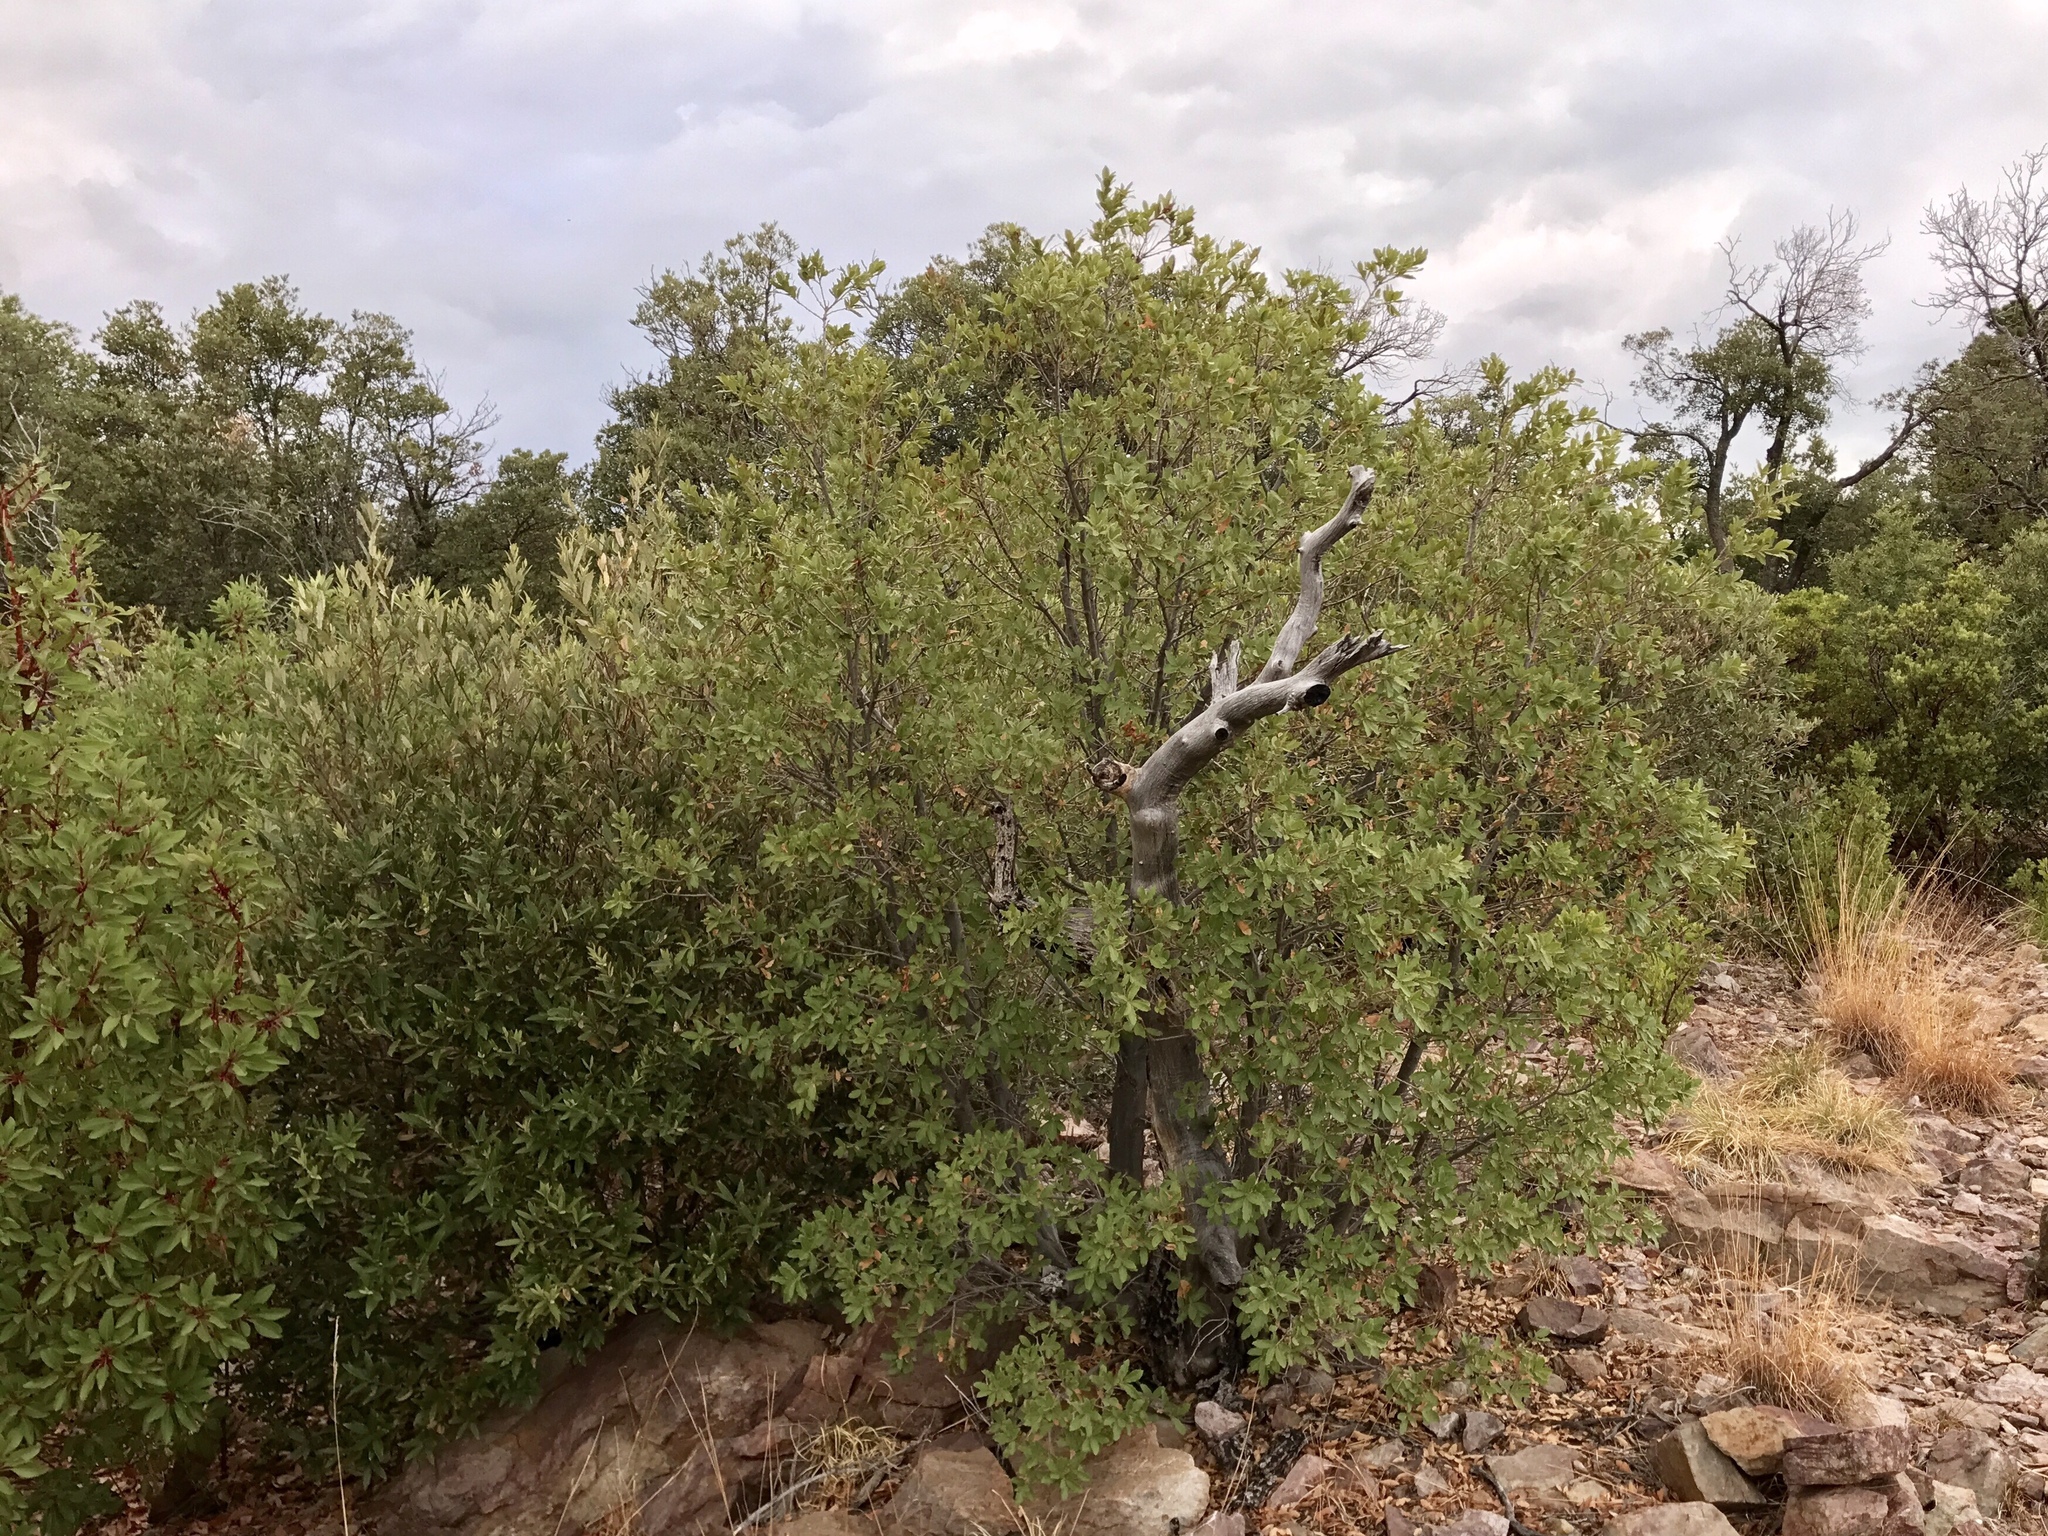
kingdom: Plantae
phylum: Tracheophyta
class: Magnoliopsida
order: Ericales
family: Ericaceae
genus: Arbutus
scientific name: Arbutus arizonica
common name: Arizona madrone
